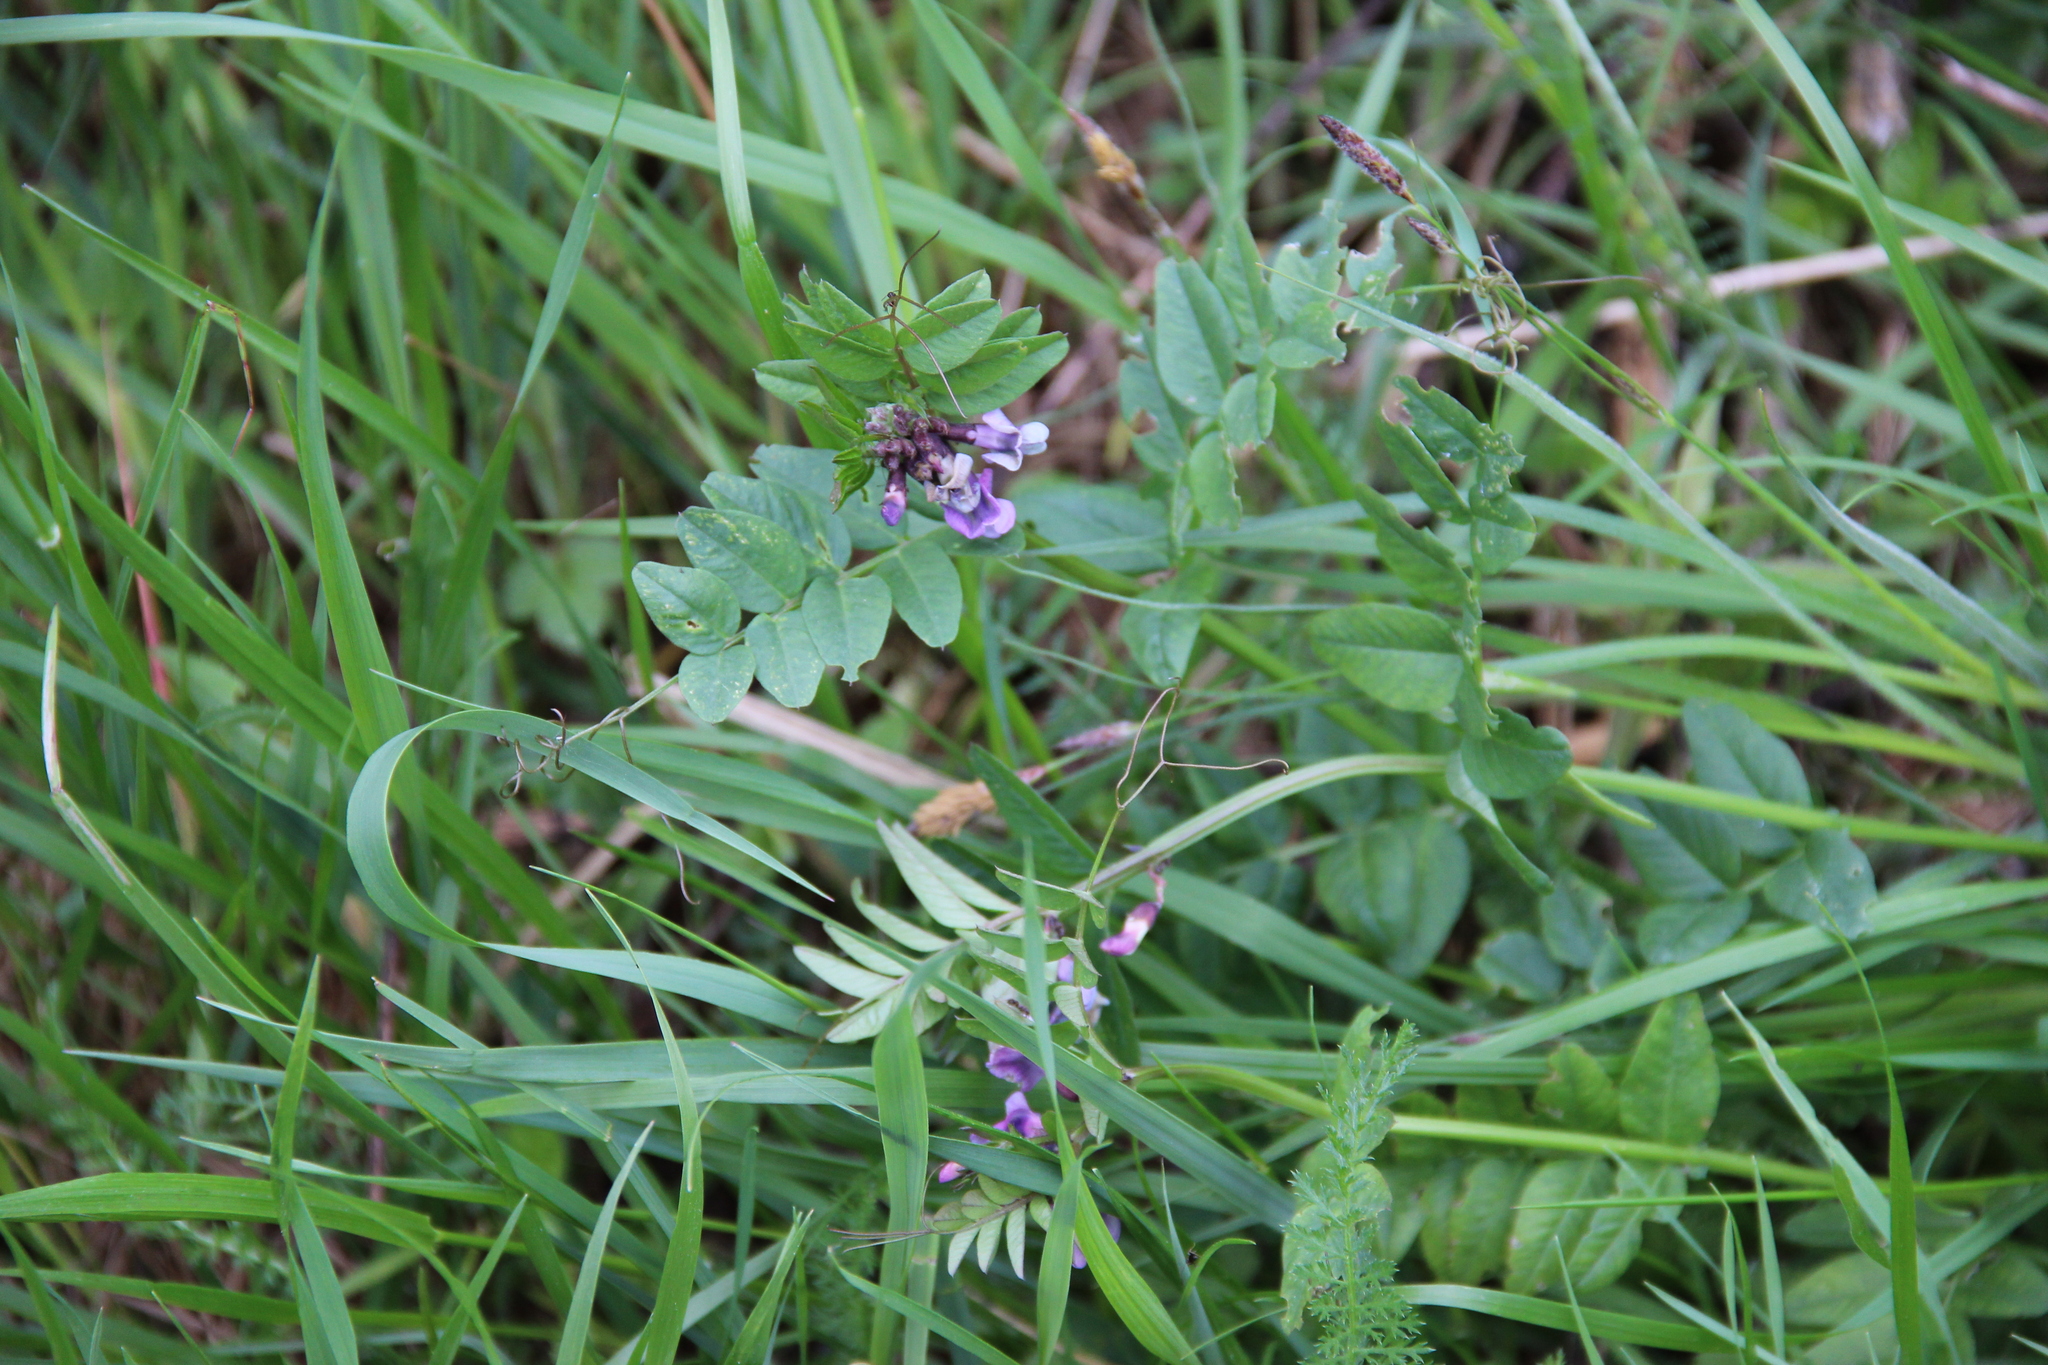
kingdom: Plantae
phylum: Tracheophyta
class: Magnoliopsida
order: Fabales
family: Fabaceae
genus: Vicia
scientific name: Vicia sepium
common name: Bush vetch
